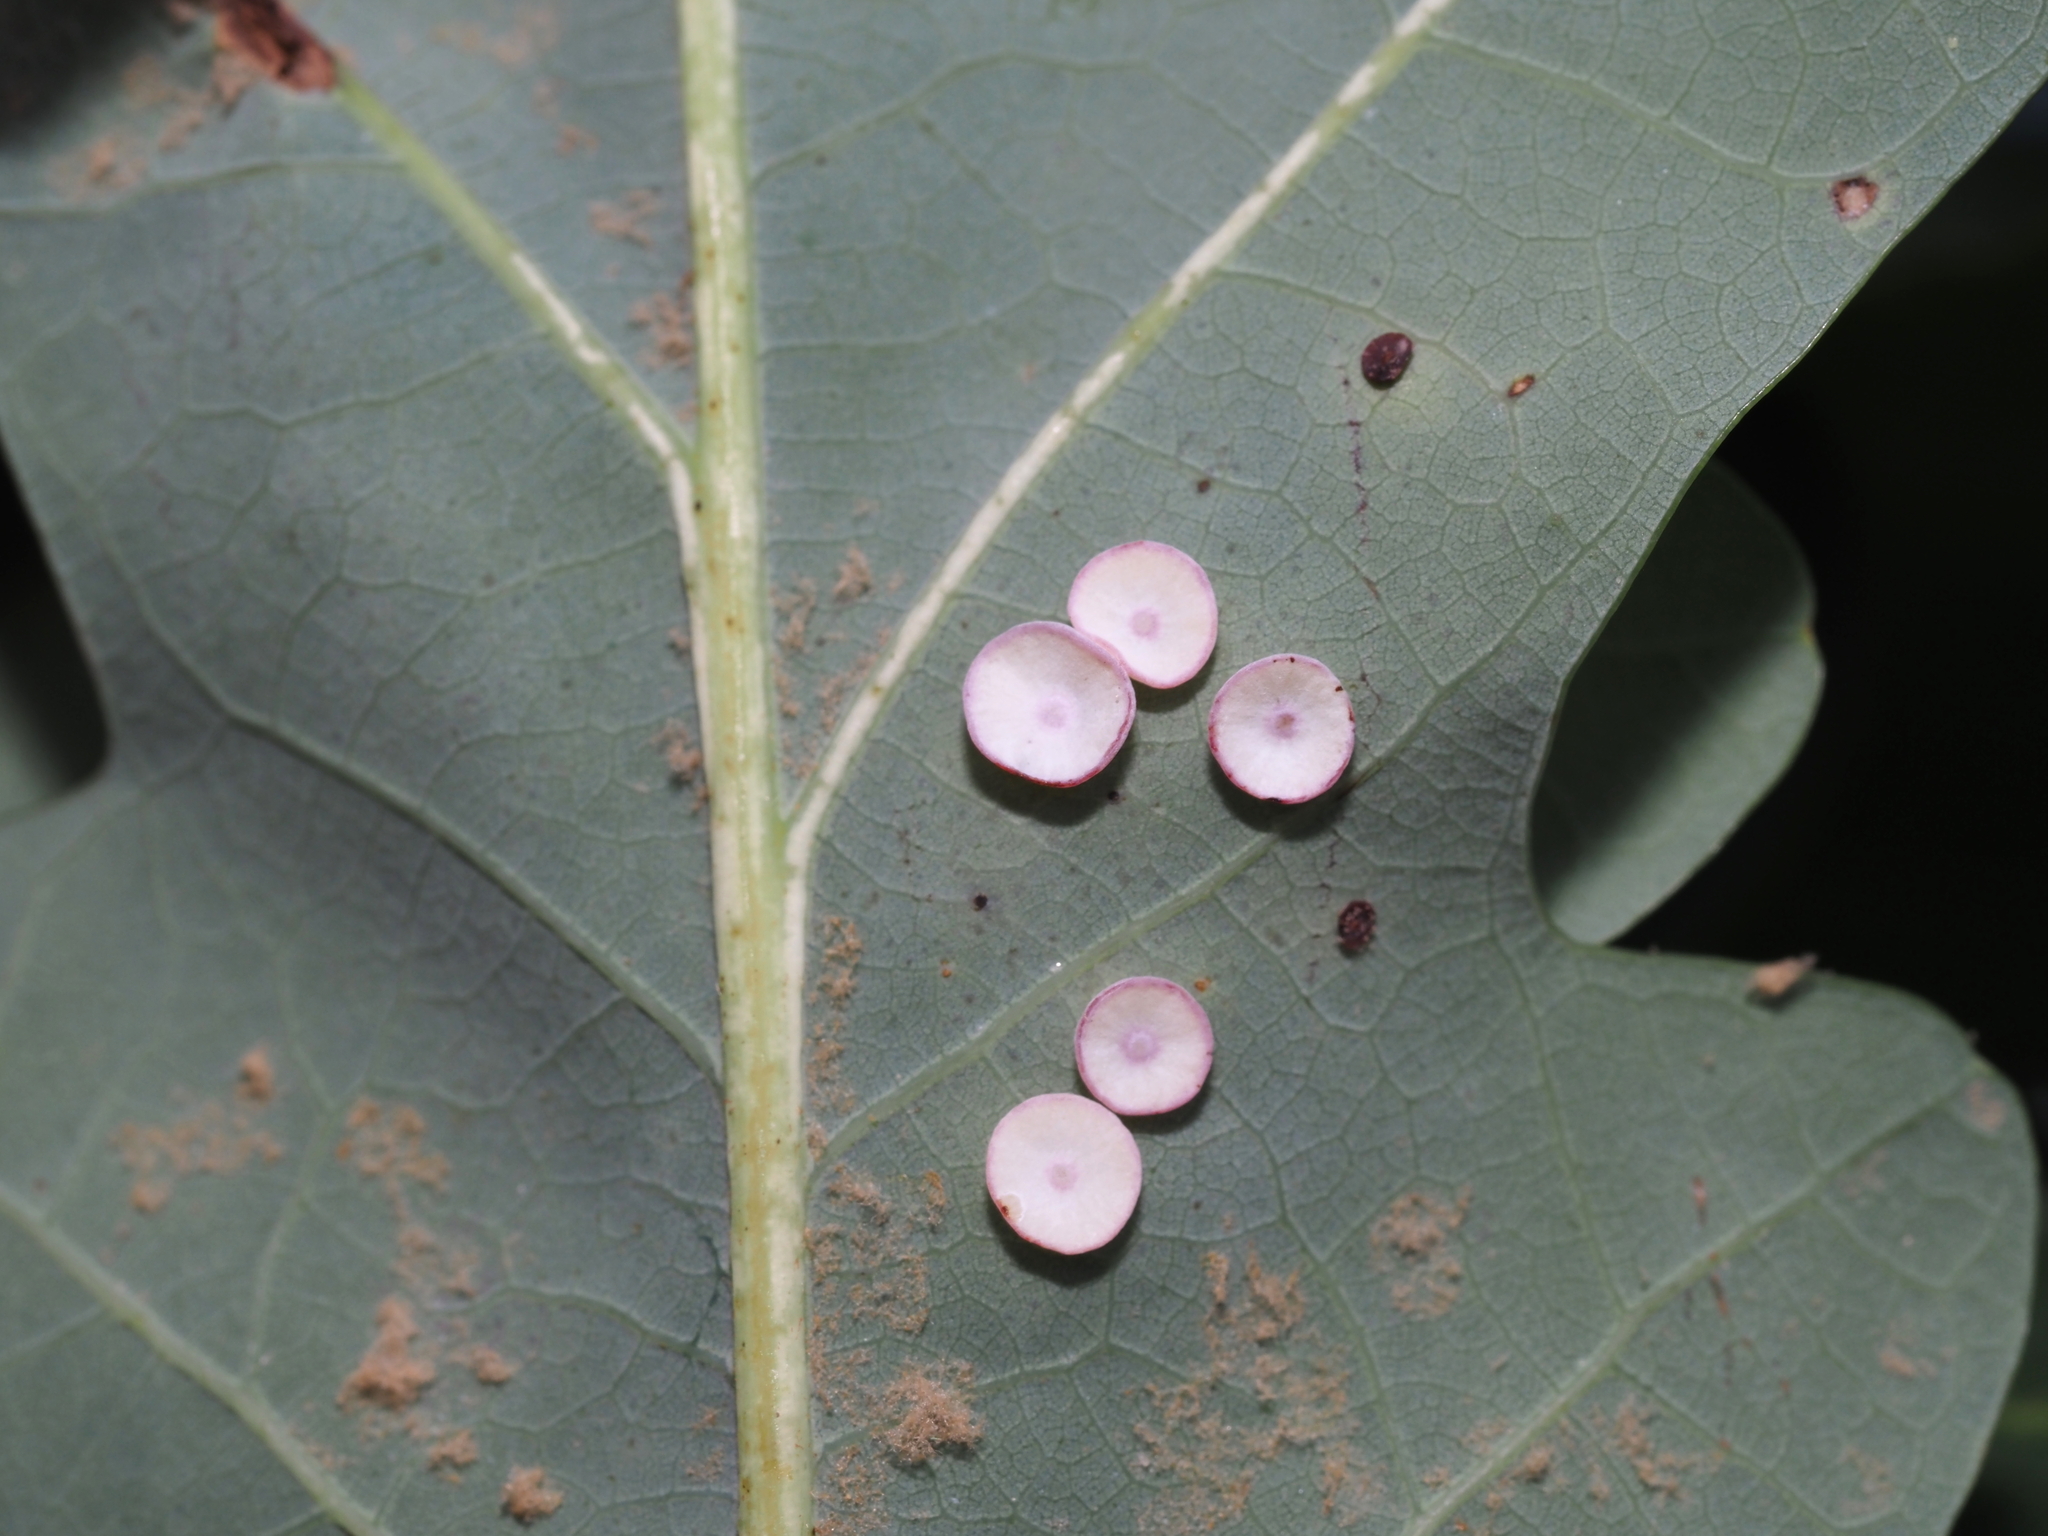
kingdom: Animalia
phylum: Arthropoda
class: Insecta
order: Hymenoptera
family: Cynipidae
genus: Phylloteras
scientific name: Phylloteras poculum
